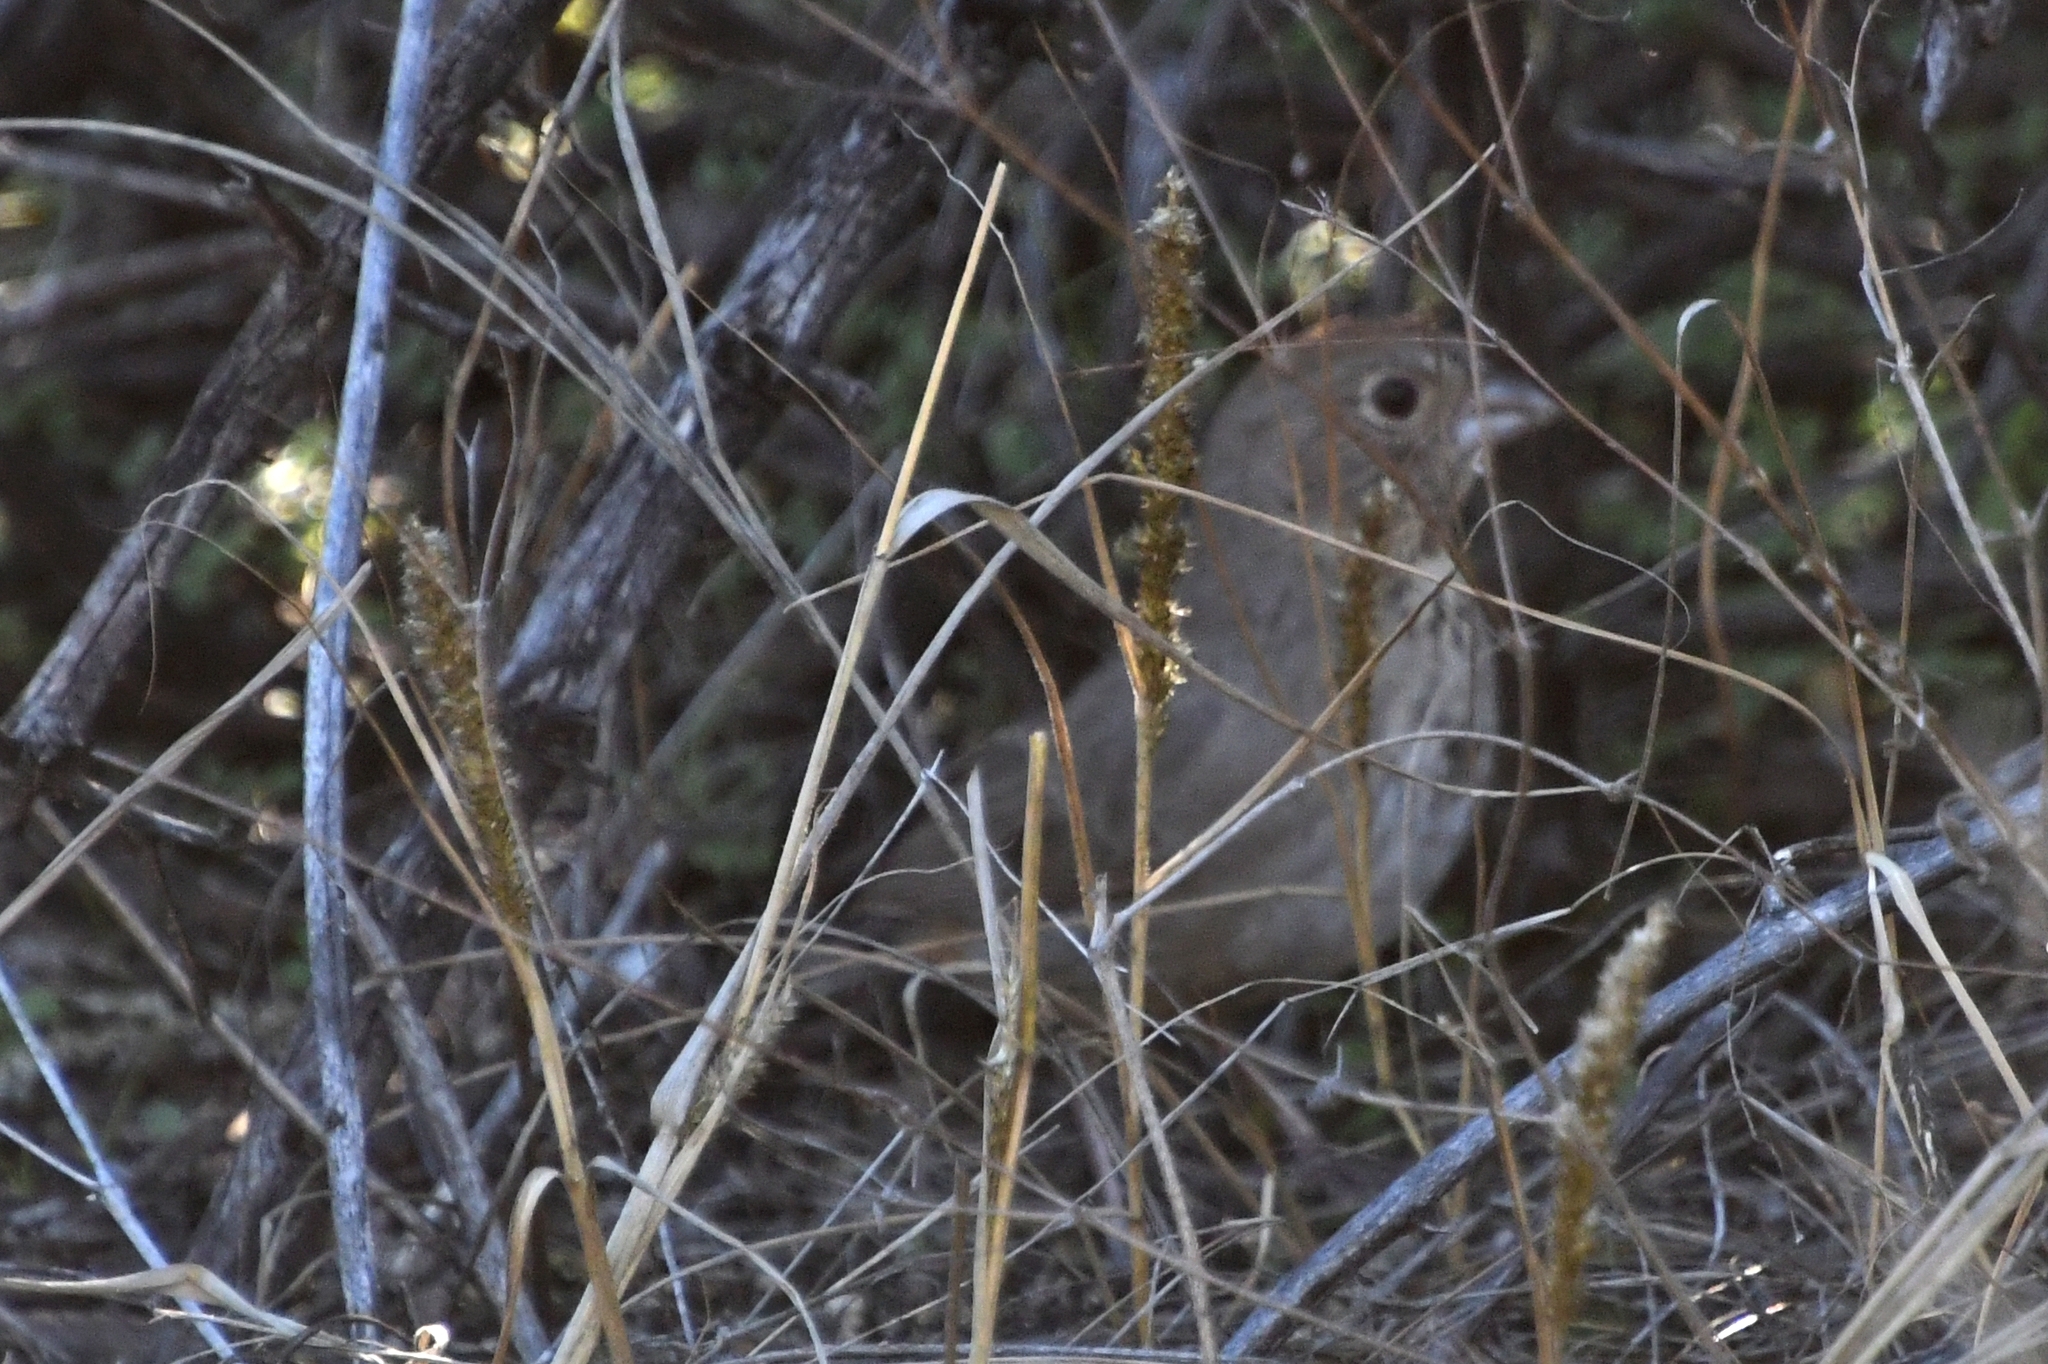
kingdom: Animalia
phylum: Chordata
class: Aves
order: Passeriformes
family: Passerellidae
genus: Melozone
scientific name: Melozone fusca
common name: Canyon towhee
